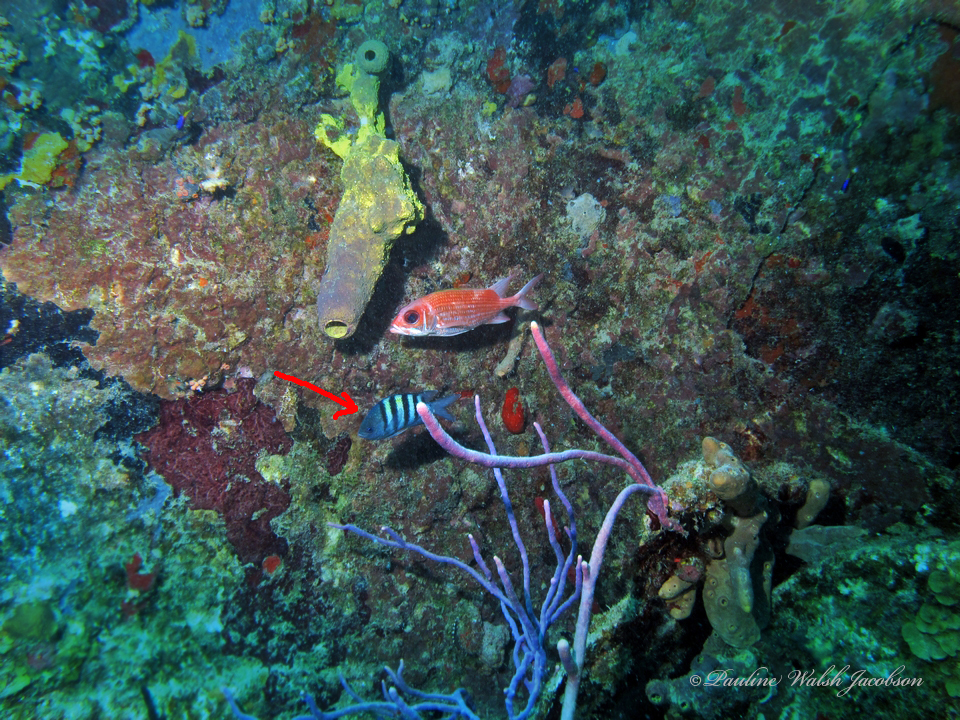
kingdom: Animalia
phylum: Chordata
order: Perciformes
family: Pomacentridae
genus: Abudefduf
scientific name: Abudefduf saxatilis
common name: Sergeant major
